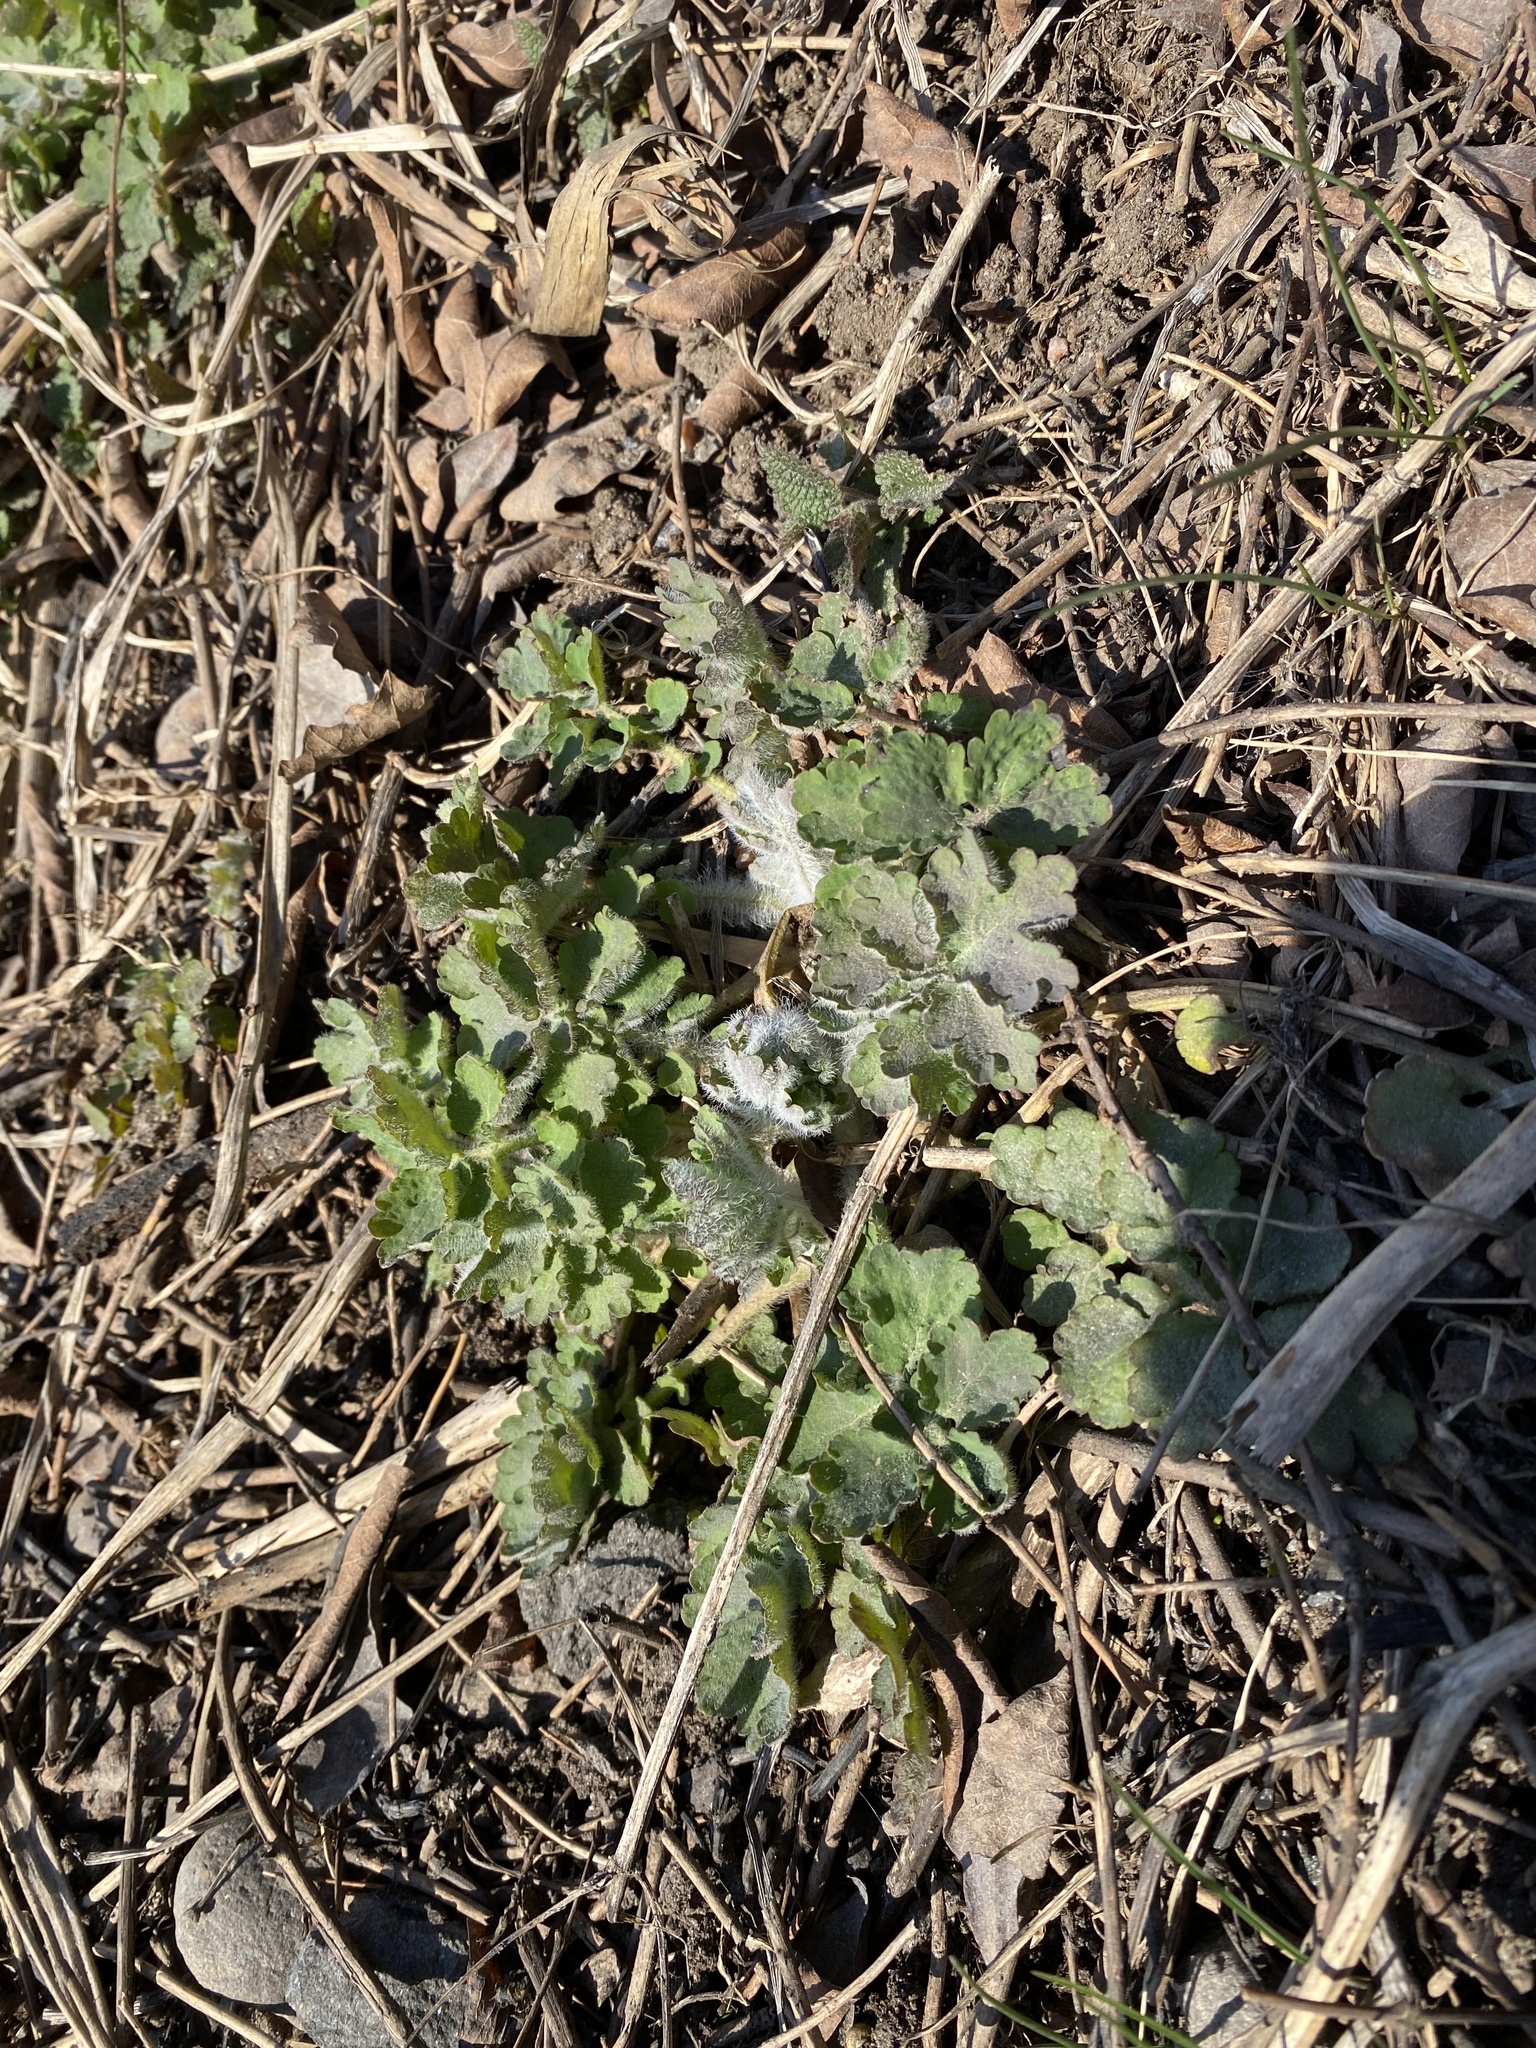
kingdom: Plantae
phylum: Tracheophyta
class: Magnoliopsida
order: Ranunculales
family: Papaveraceae
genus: Chelidonium
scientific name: Chelidonium majus
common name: Greater celandine
